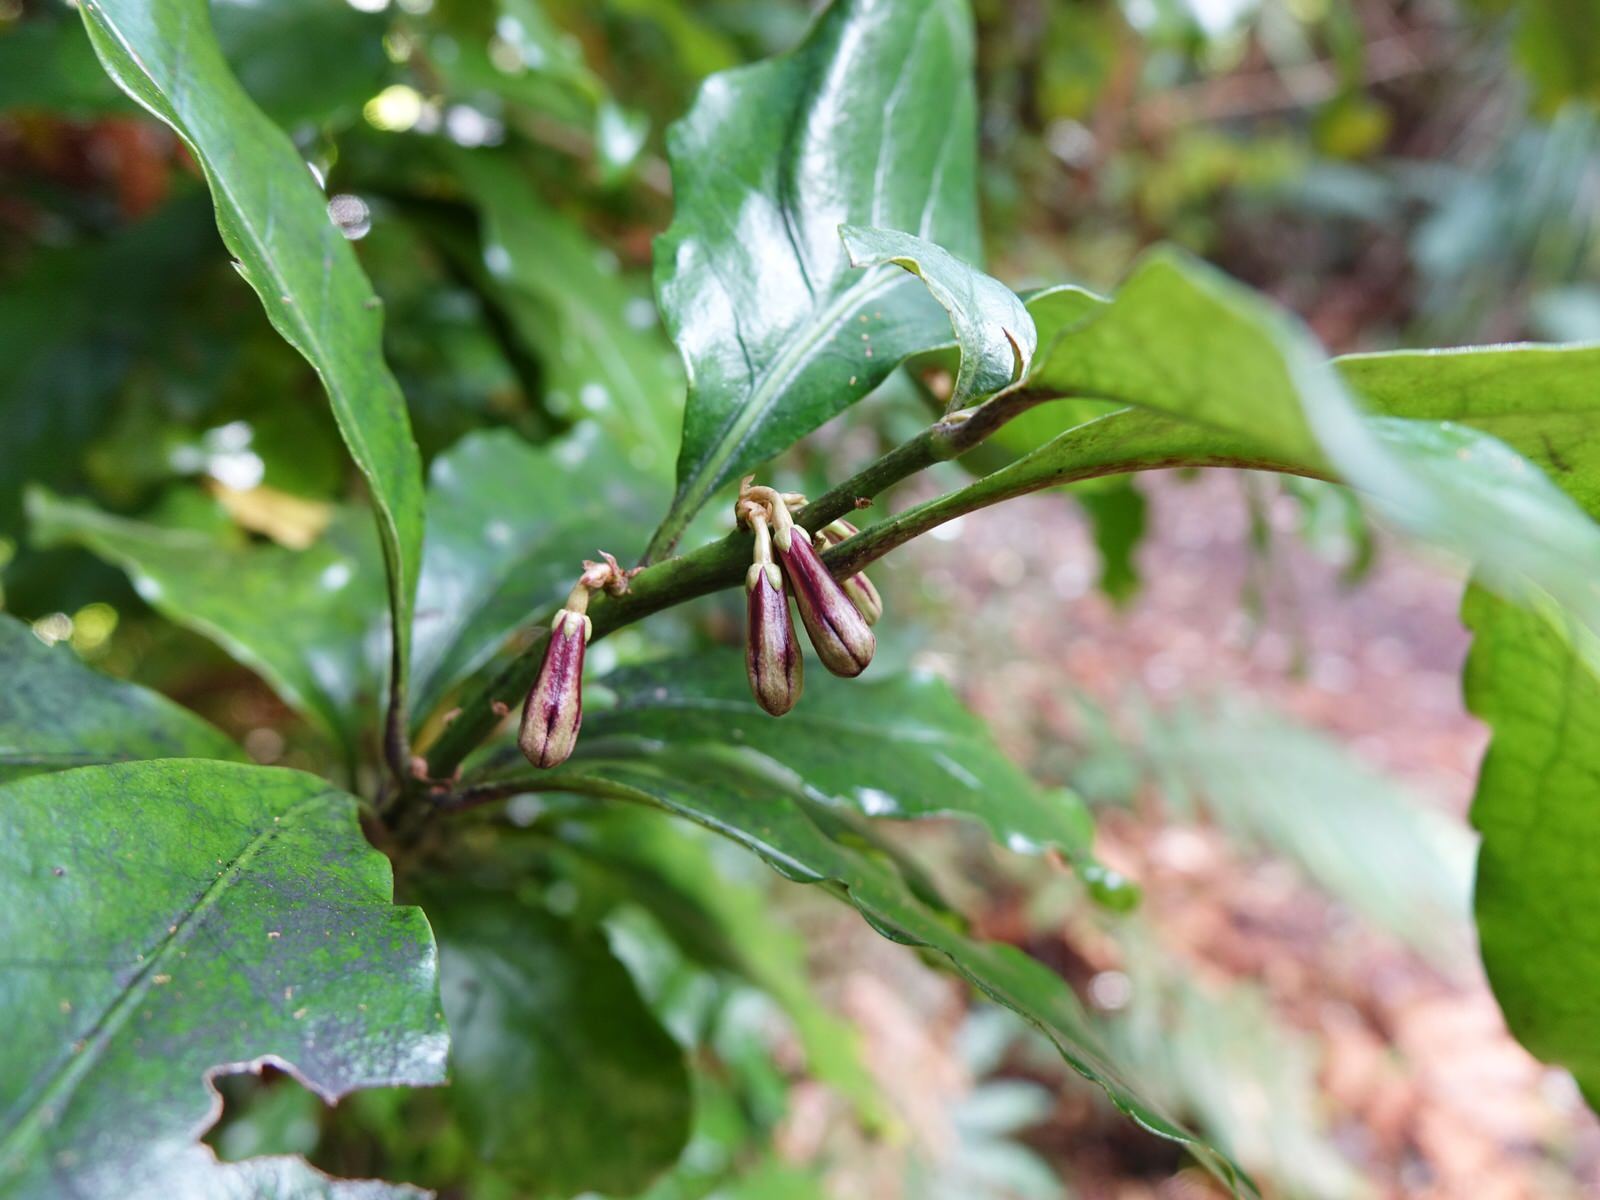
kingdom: Plantae
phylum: Tracheophyta
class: Magnoliopsida
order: Asterales
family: Alseuosmiaceae
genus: Alseuosmia
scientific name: Alseuosmia macrophylla
